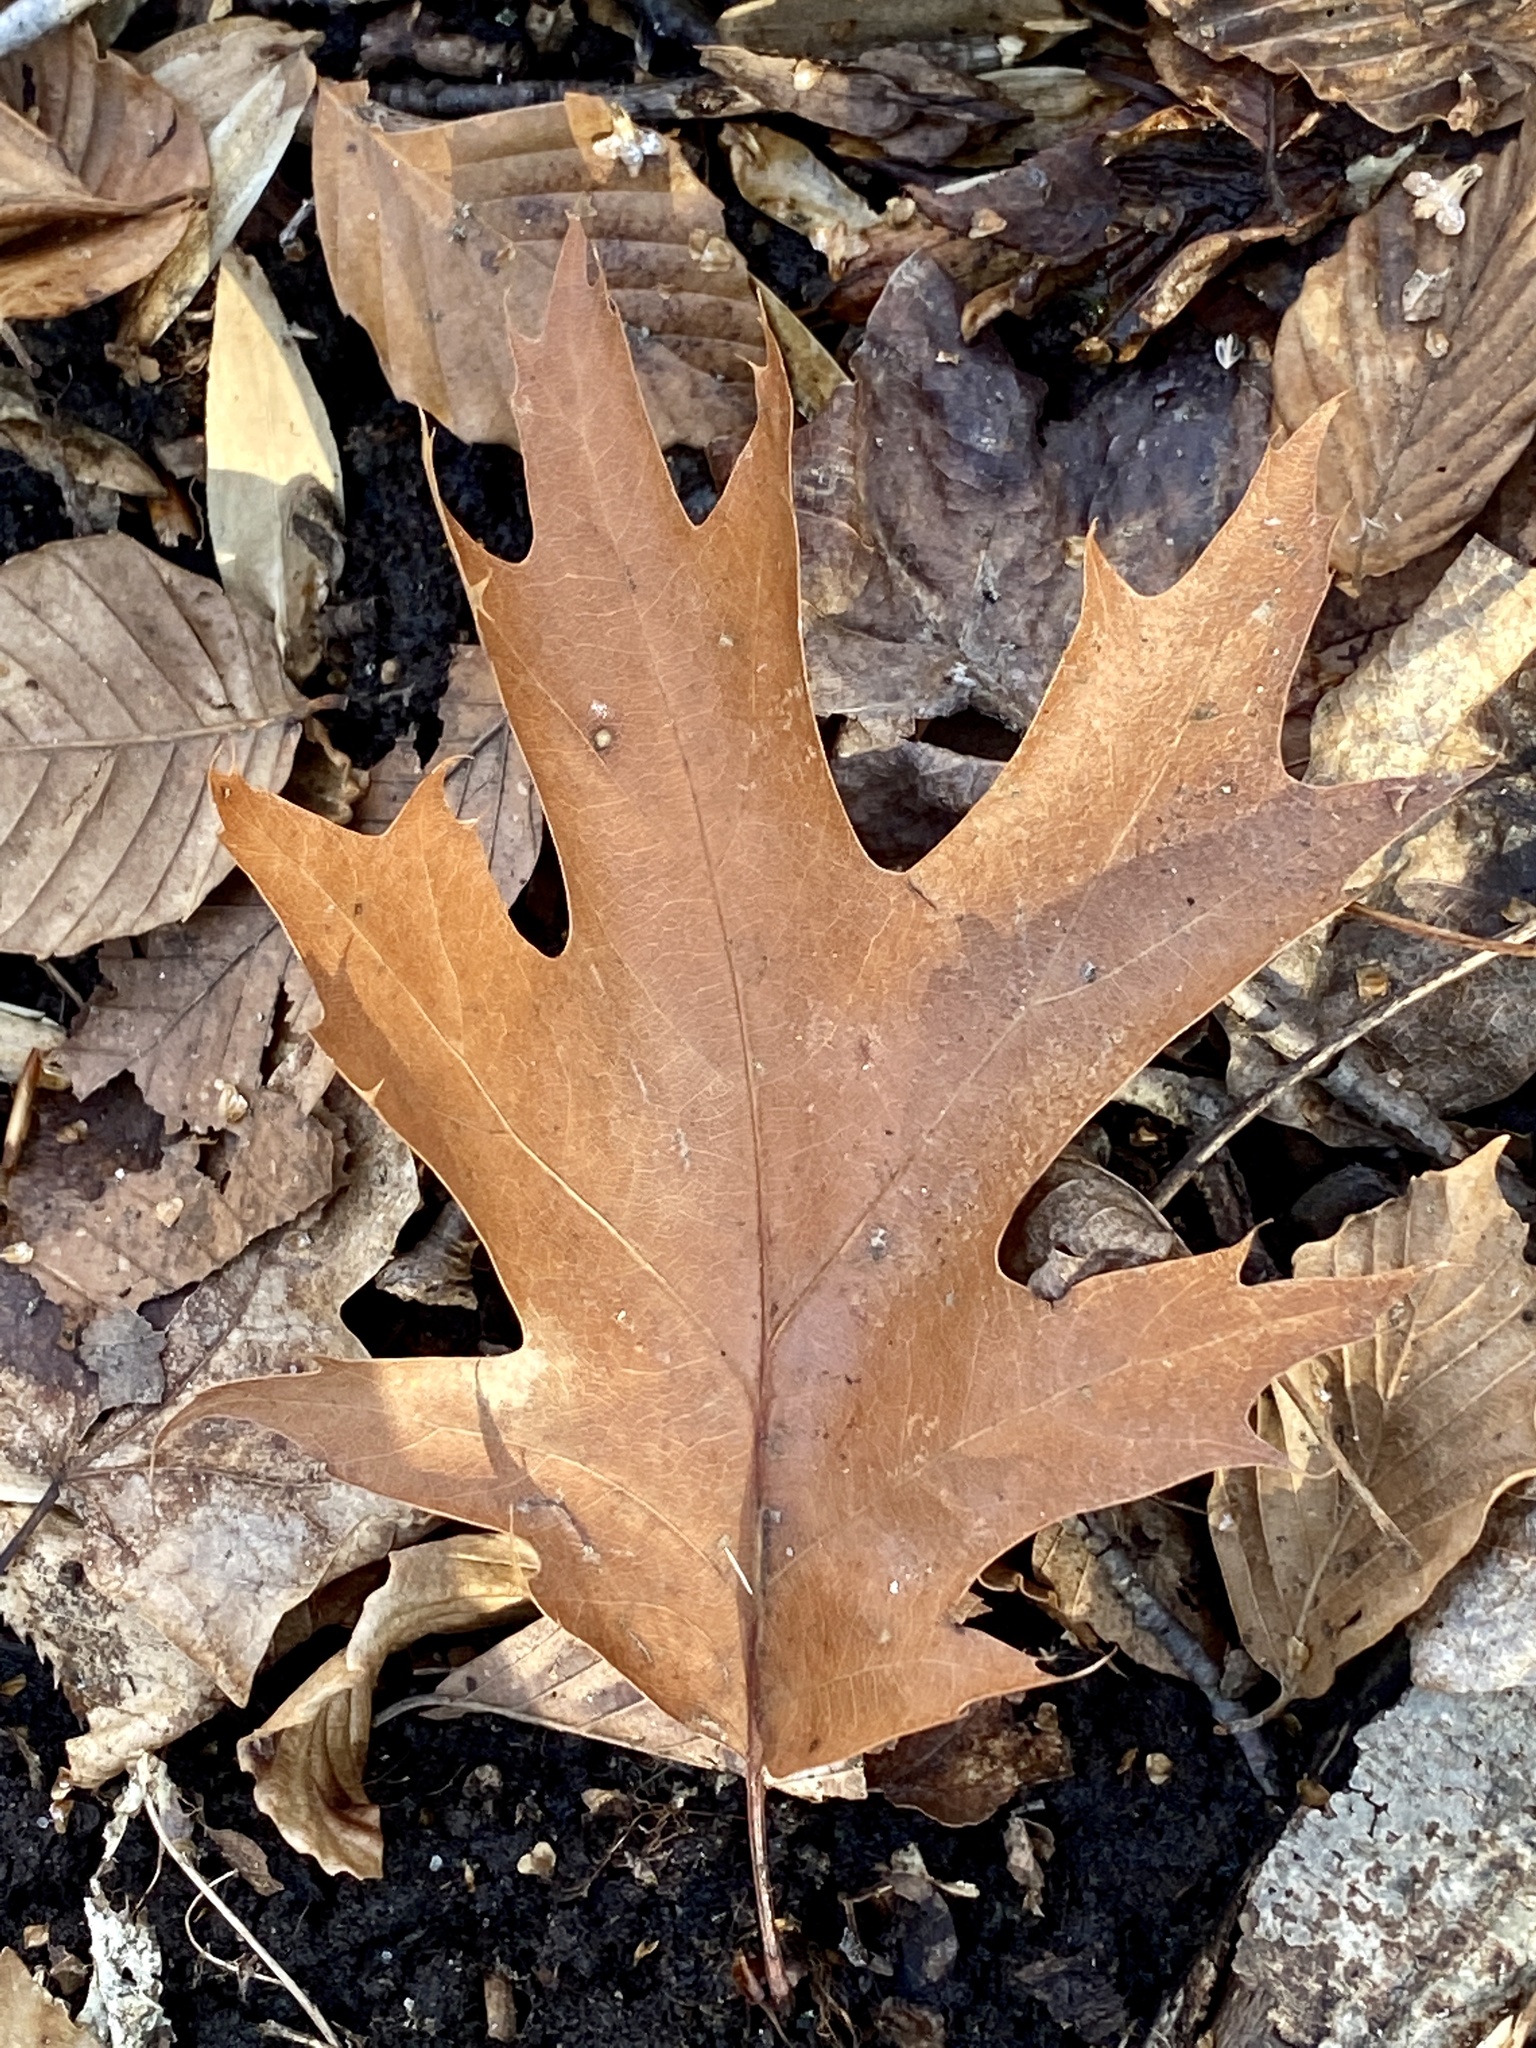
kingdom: Plantae
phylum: Tracheophyta
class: Magnoliopsida
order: Fagales
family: Fagaceae
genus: Quercus
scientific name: Quercus rubra
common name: Red oak
